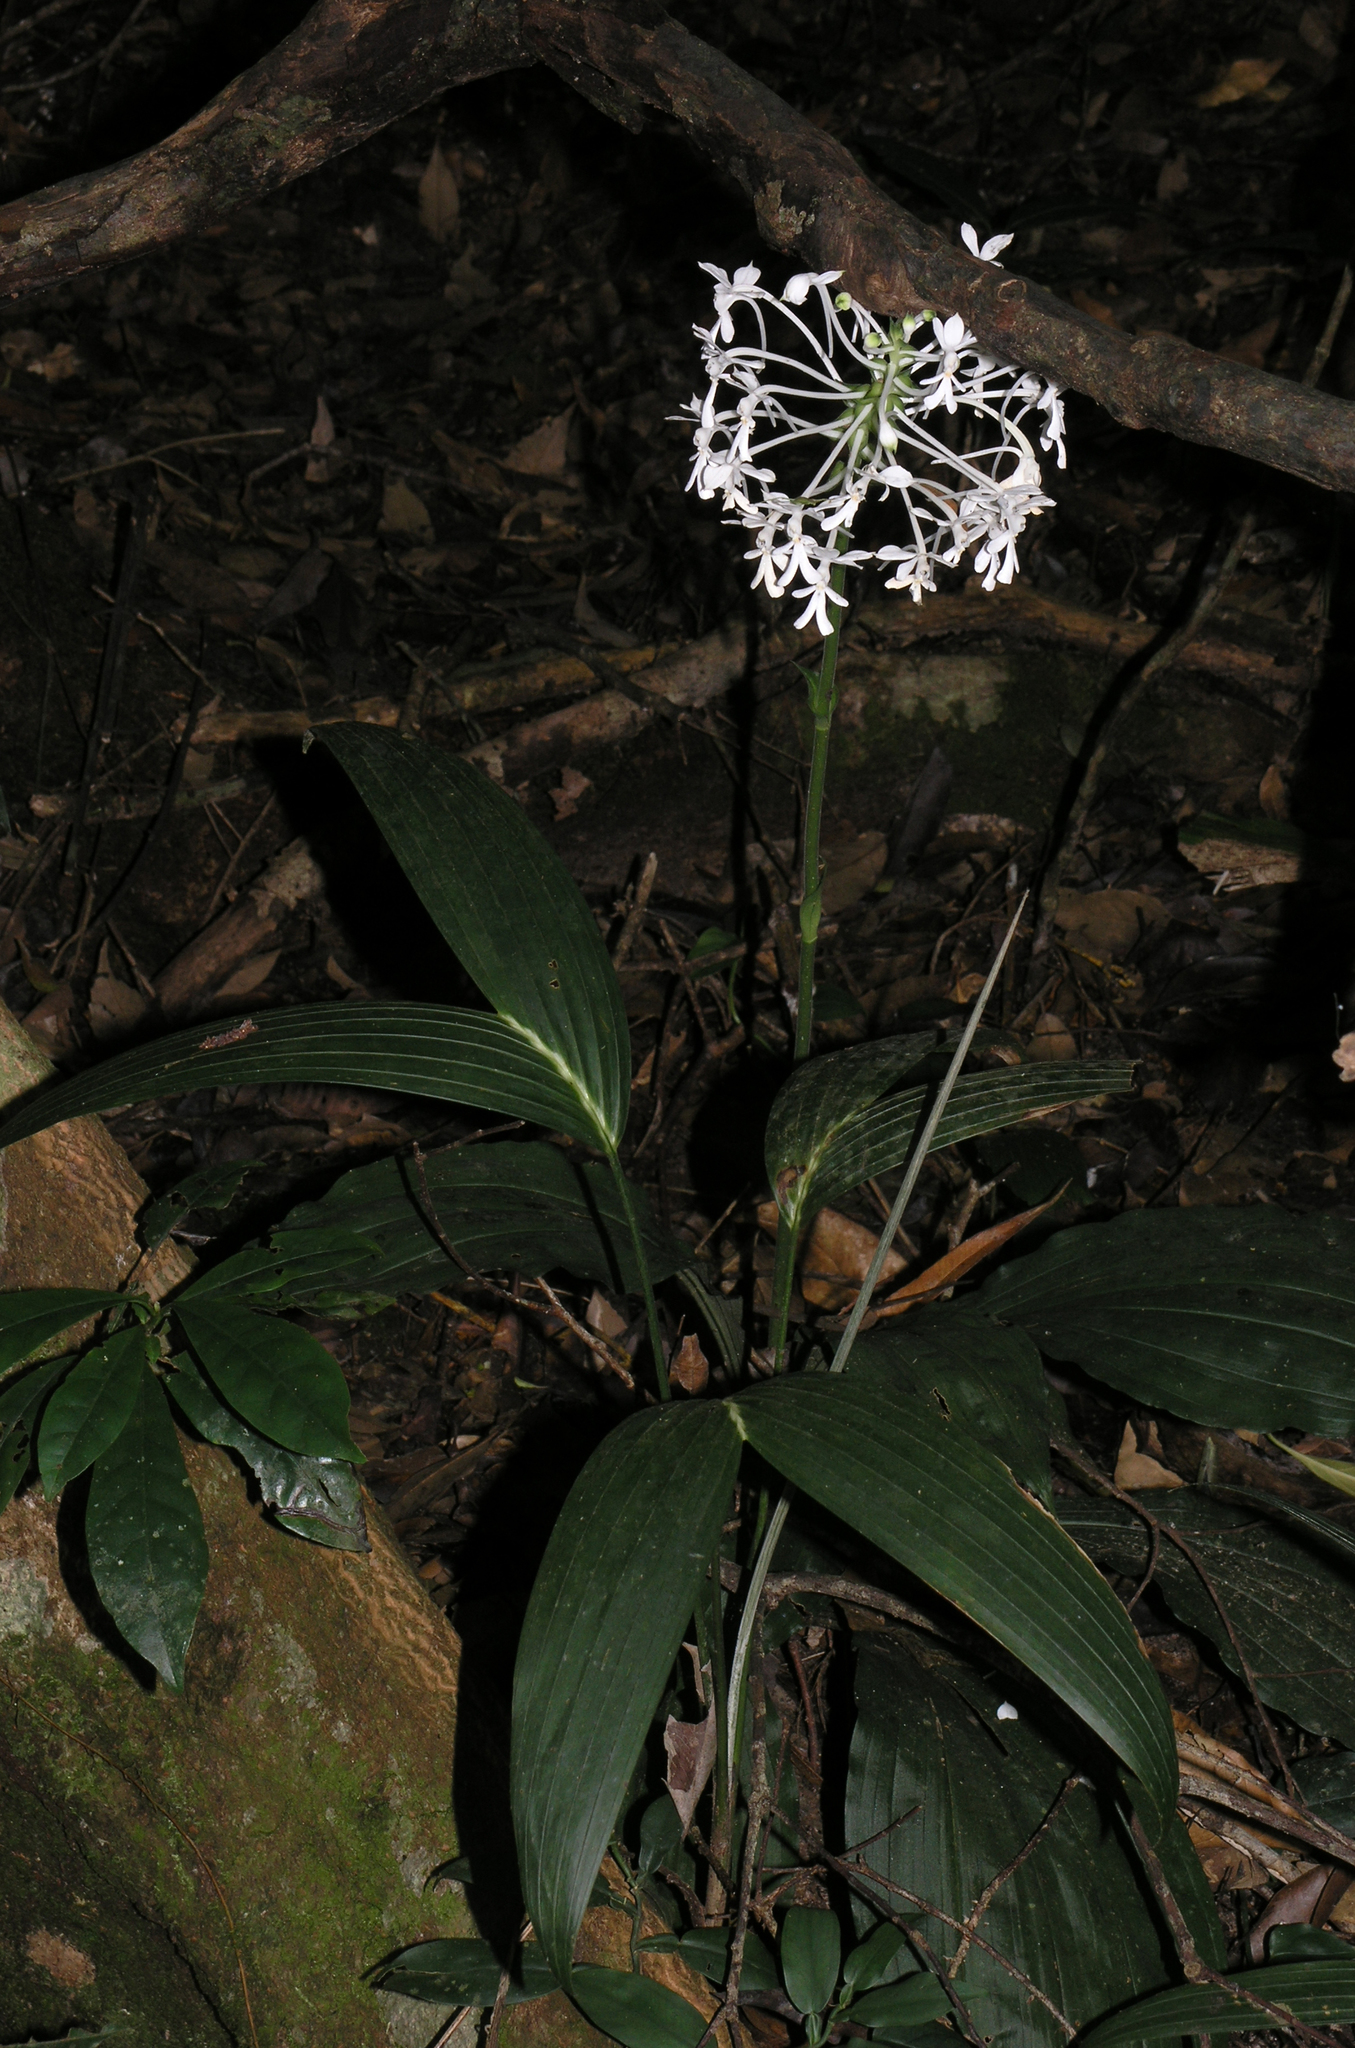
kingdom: Plantae
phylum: Tracheophyta
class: Liliopsida
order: Asparagales
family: Orchidaceae
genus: Calanthe
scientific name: Calanthe triplicata
